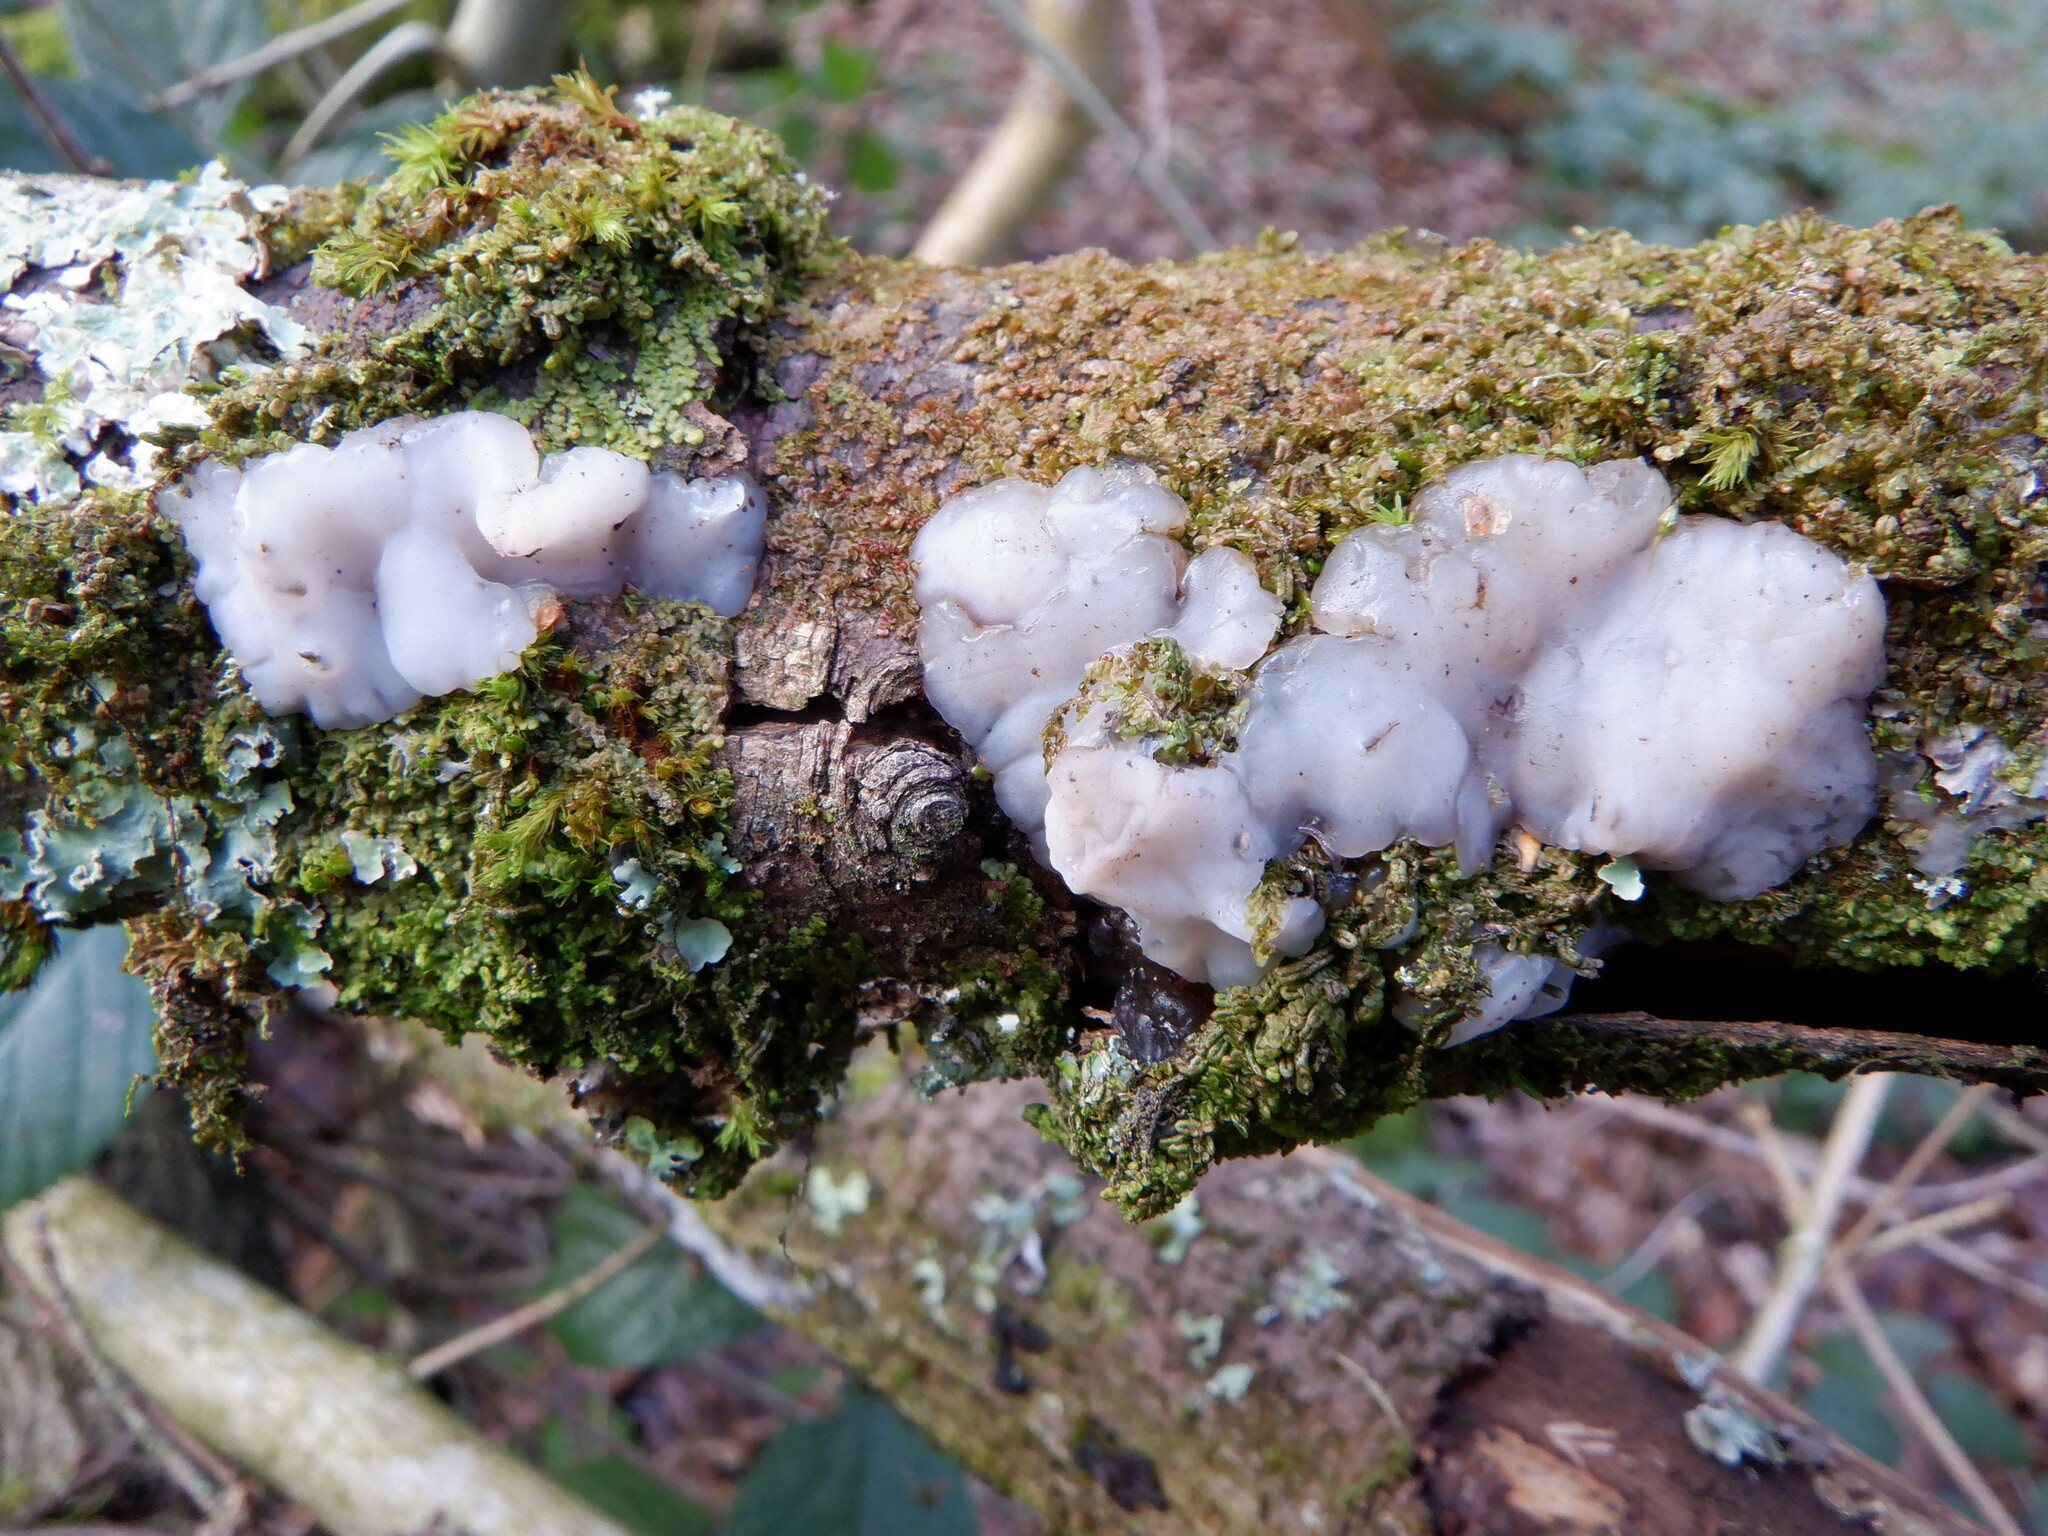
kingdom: Fungi
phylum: Basidiomycota
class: Agaricomycetes
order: Auriculariales
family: Auriculariaceae
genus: Exidia
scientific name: Exidia thuretiana
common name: White brain
